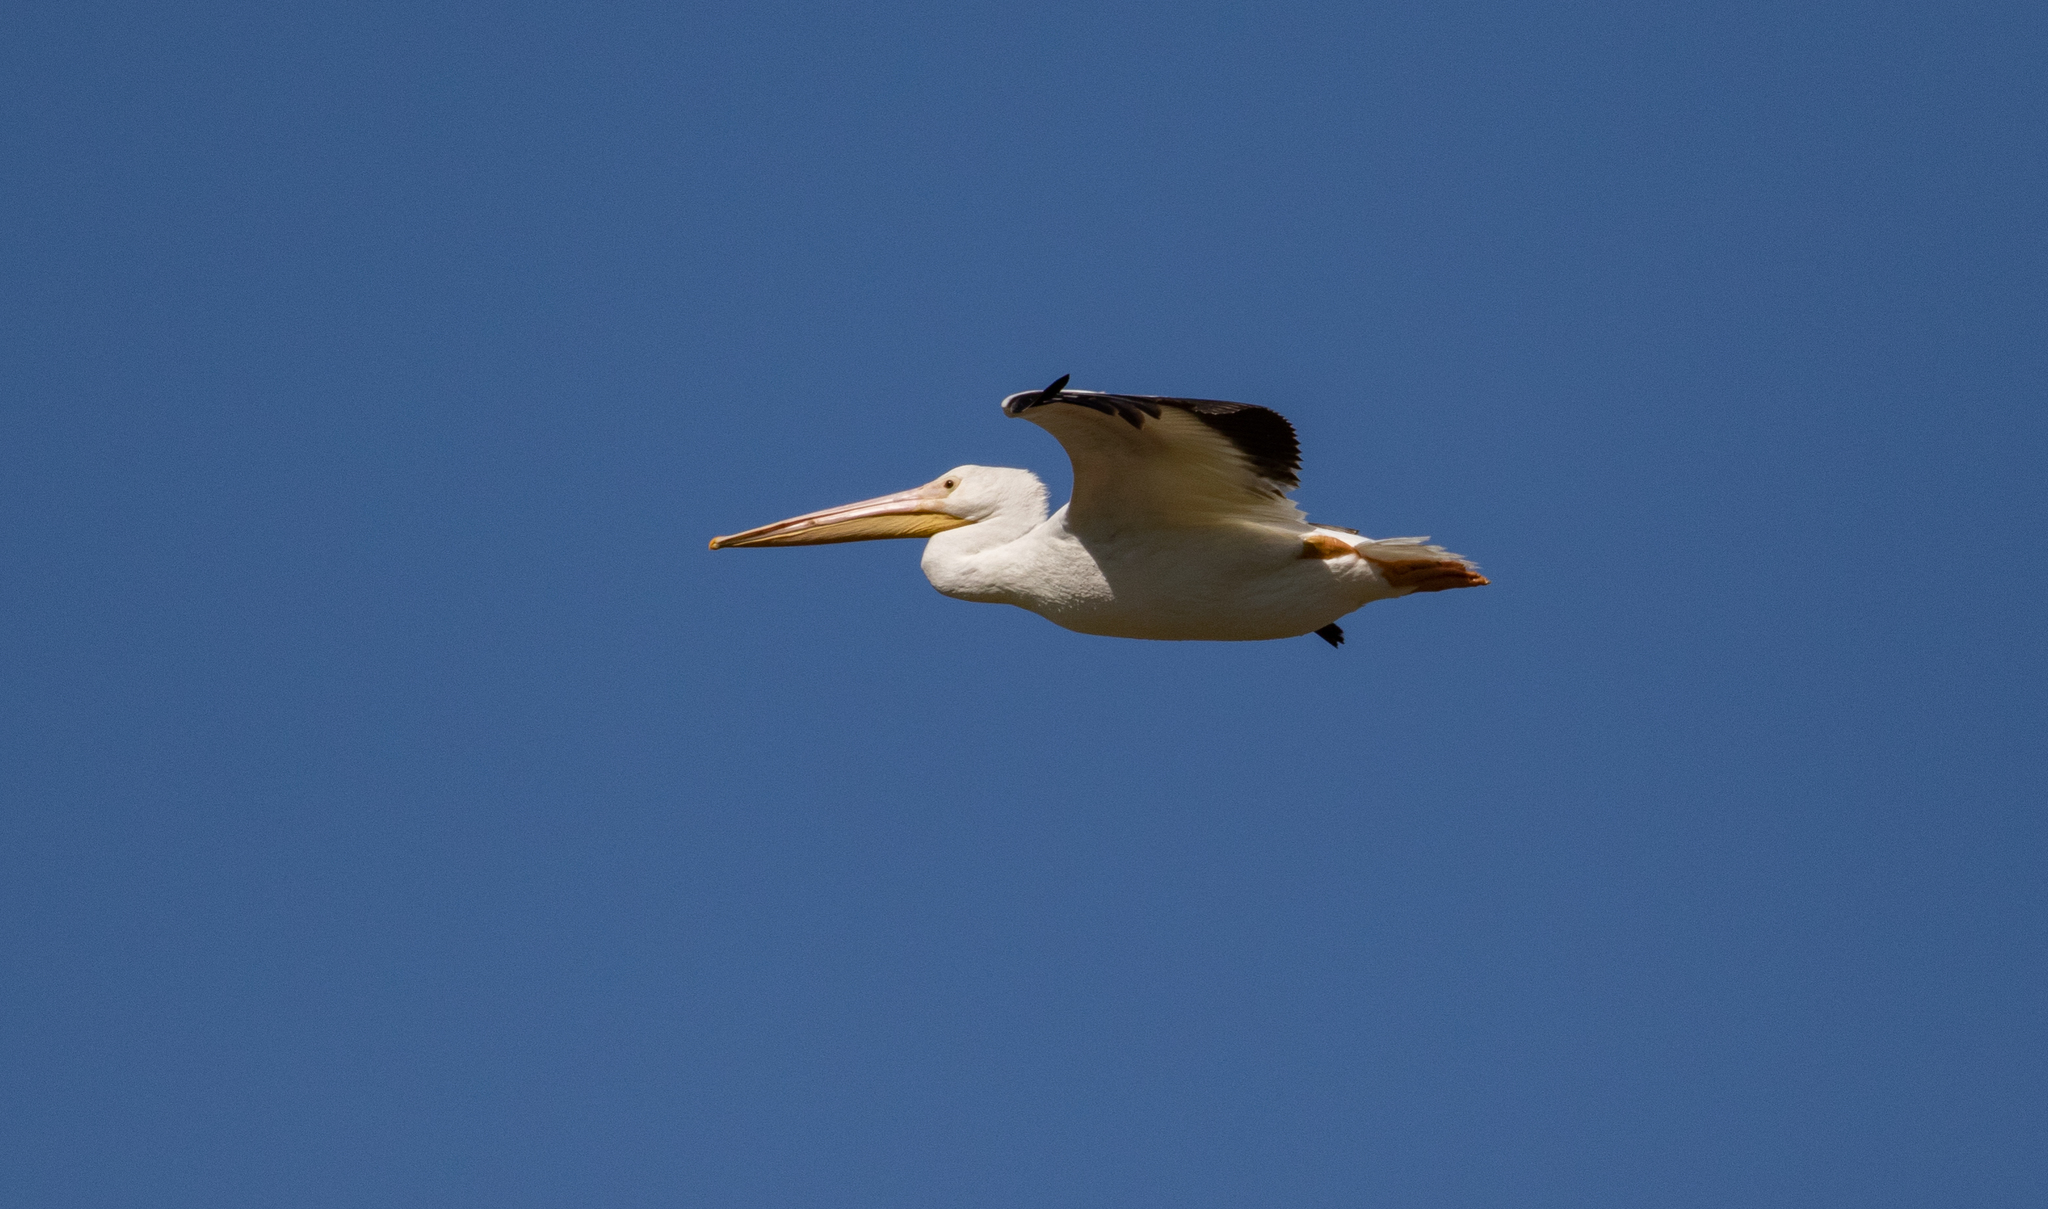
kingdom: Animalia
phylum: Chordata
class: Aves
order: Pelecaniformes
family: Pelecanidae
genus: Pelecanus
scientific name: Pelecanus erythrorhynchos
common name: American white pelican
